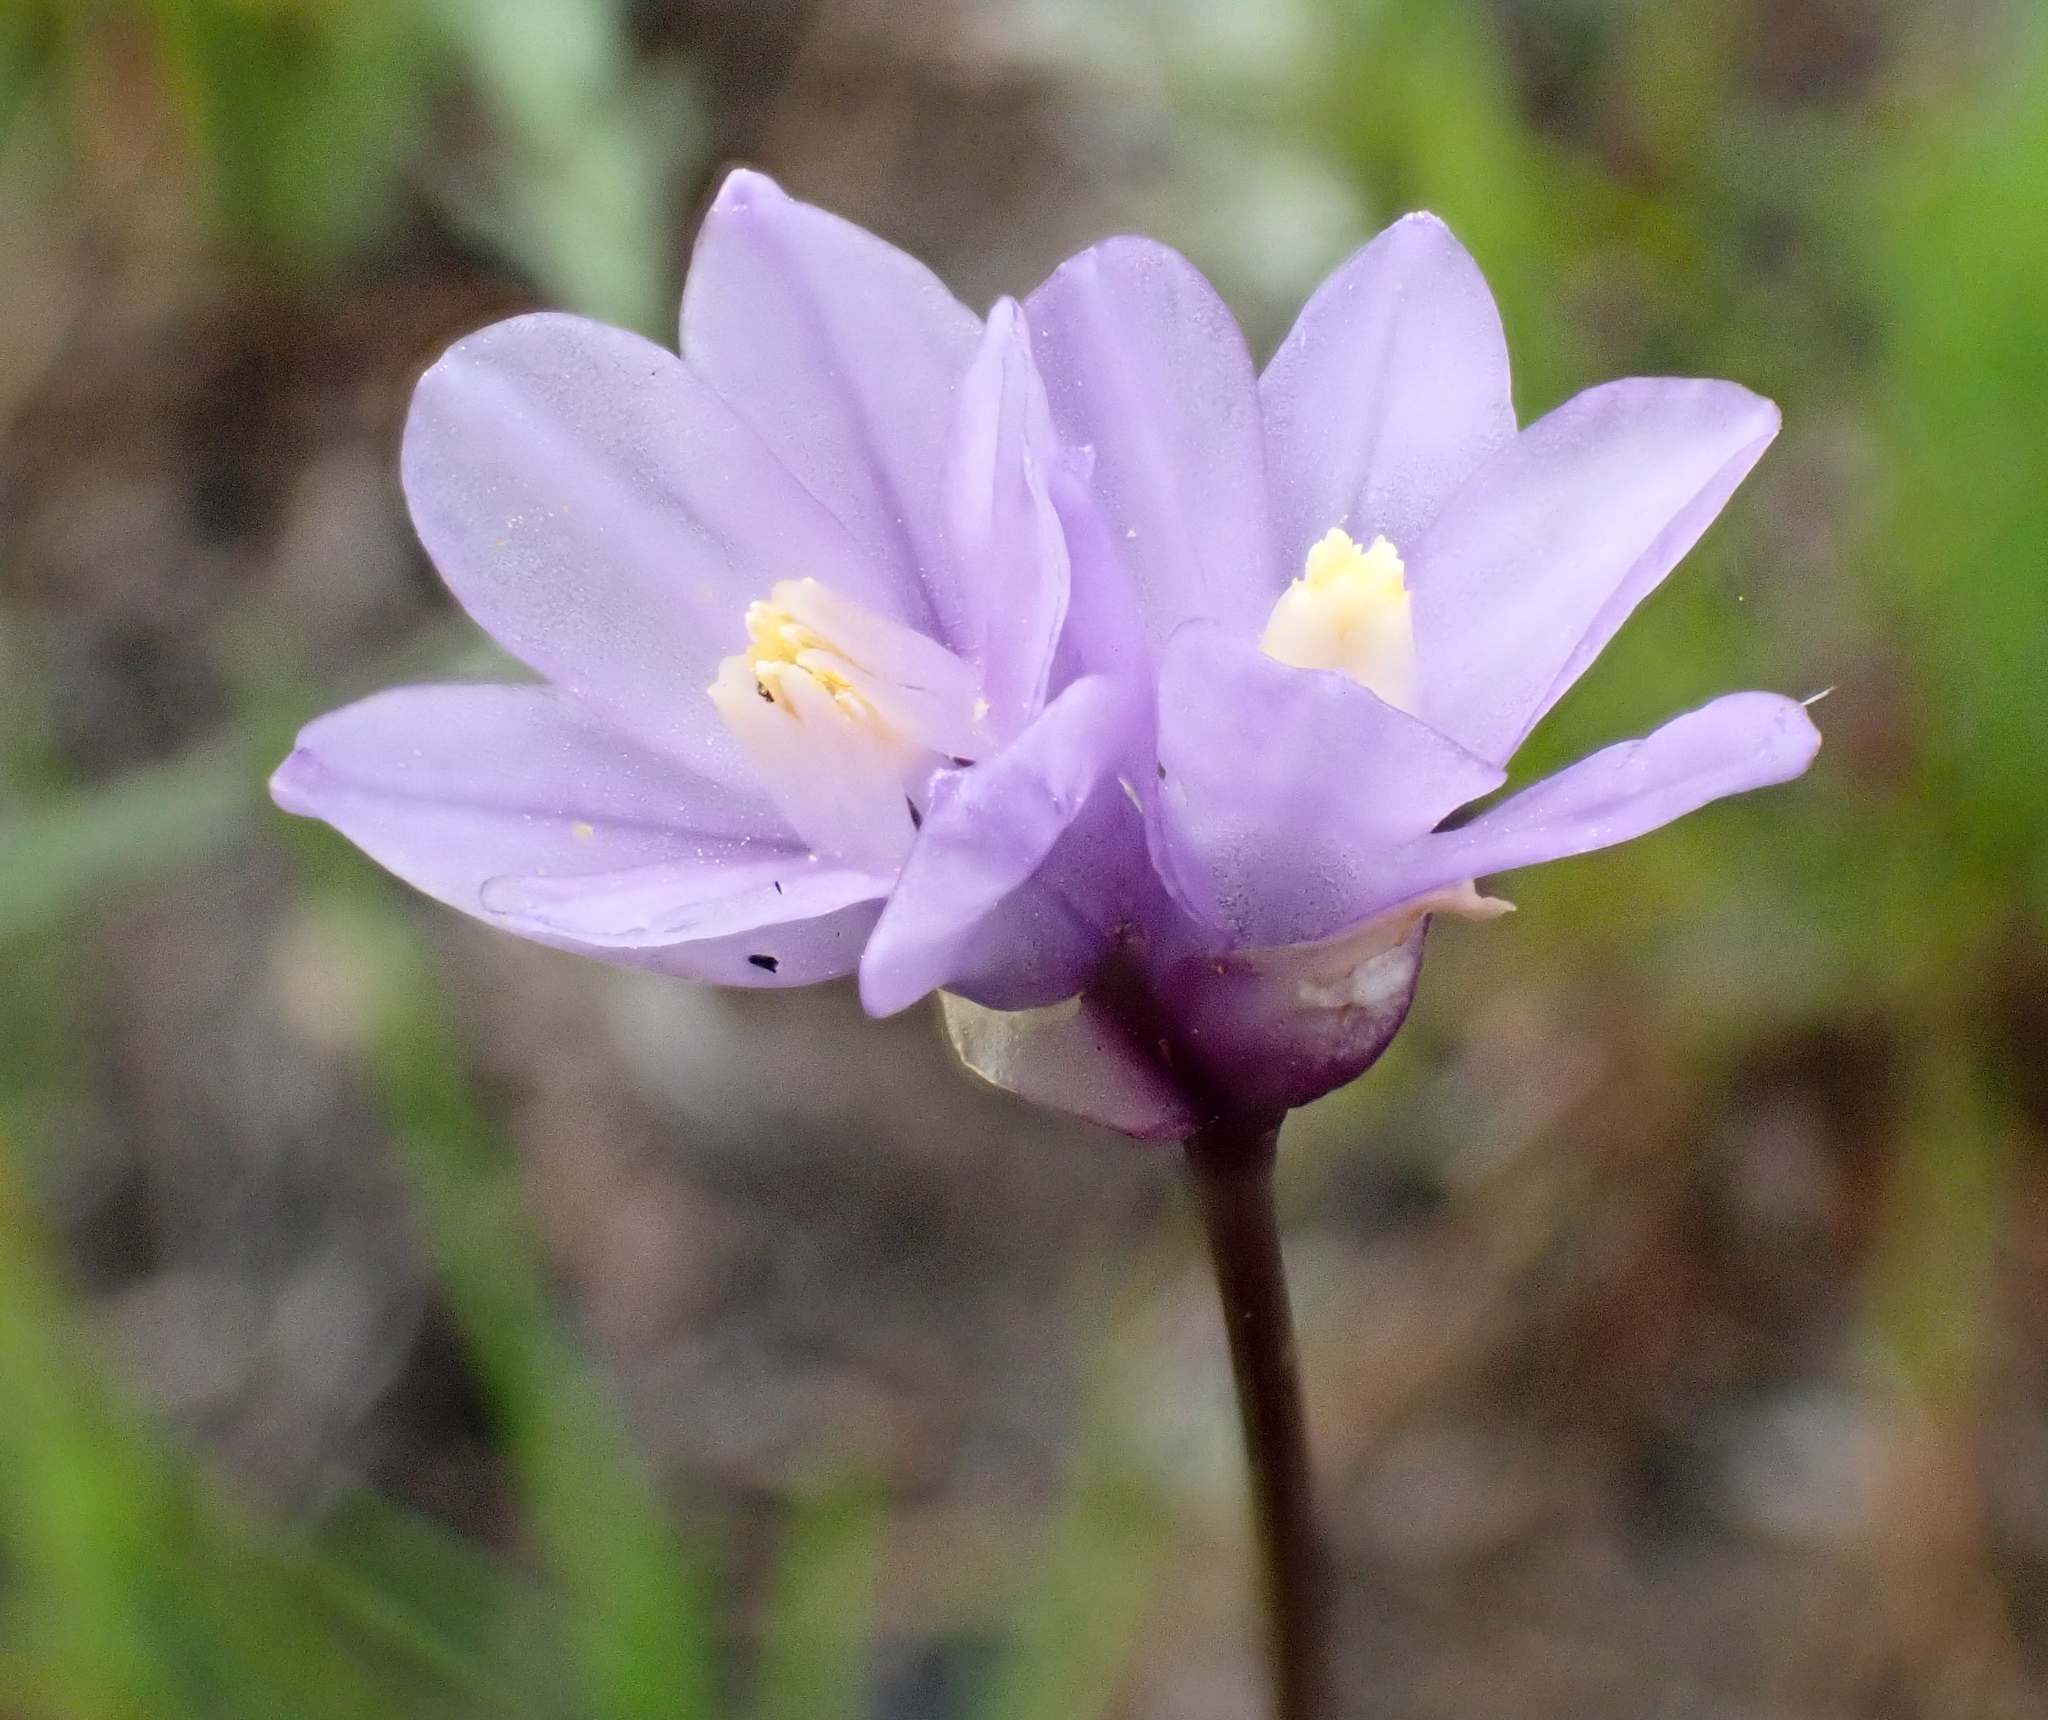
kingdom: Plantae
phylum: Tracheophyta
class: Liliopsida
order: Asparagales
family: Asparagaceae
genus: Dipterostemon
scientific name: Dipterostemon capitatus
